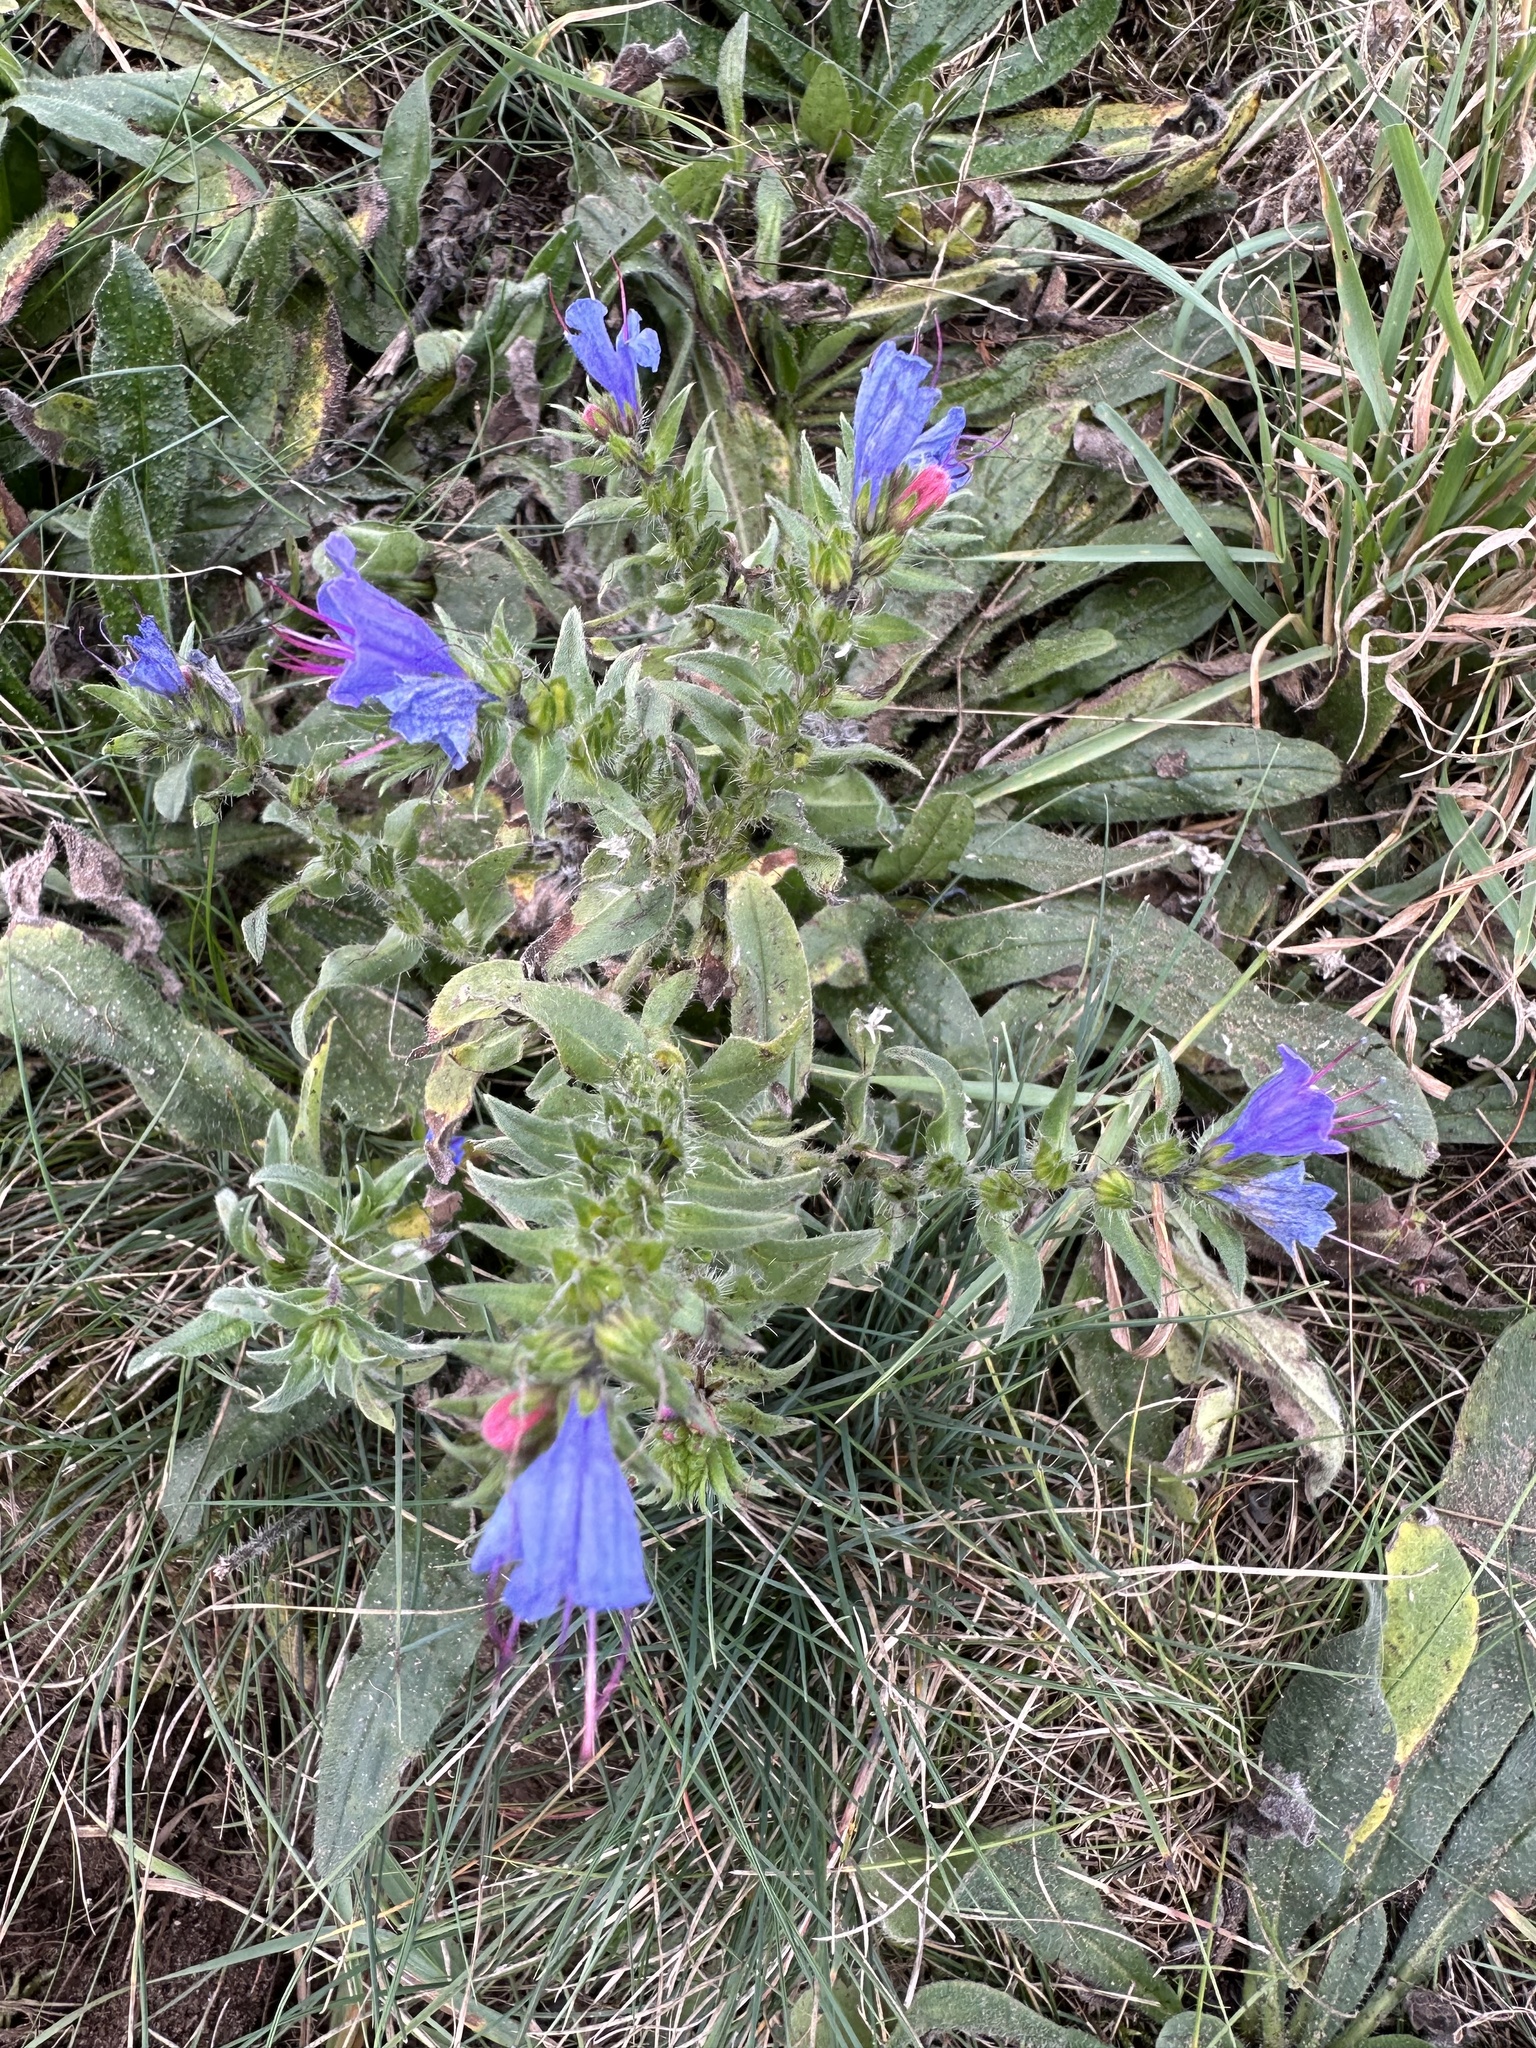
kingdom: Plantae
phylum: Tracheophyta
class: Magnoliopsida
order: Boraginales
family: Boraginaceae
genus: Echium
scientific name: Echium vulgare
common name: Common viper's bugloss
